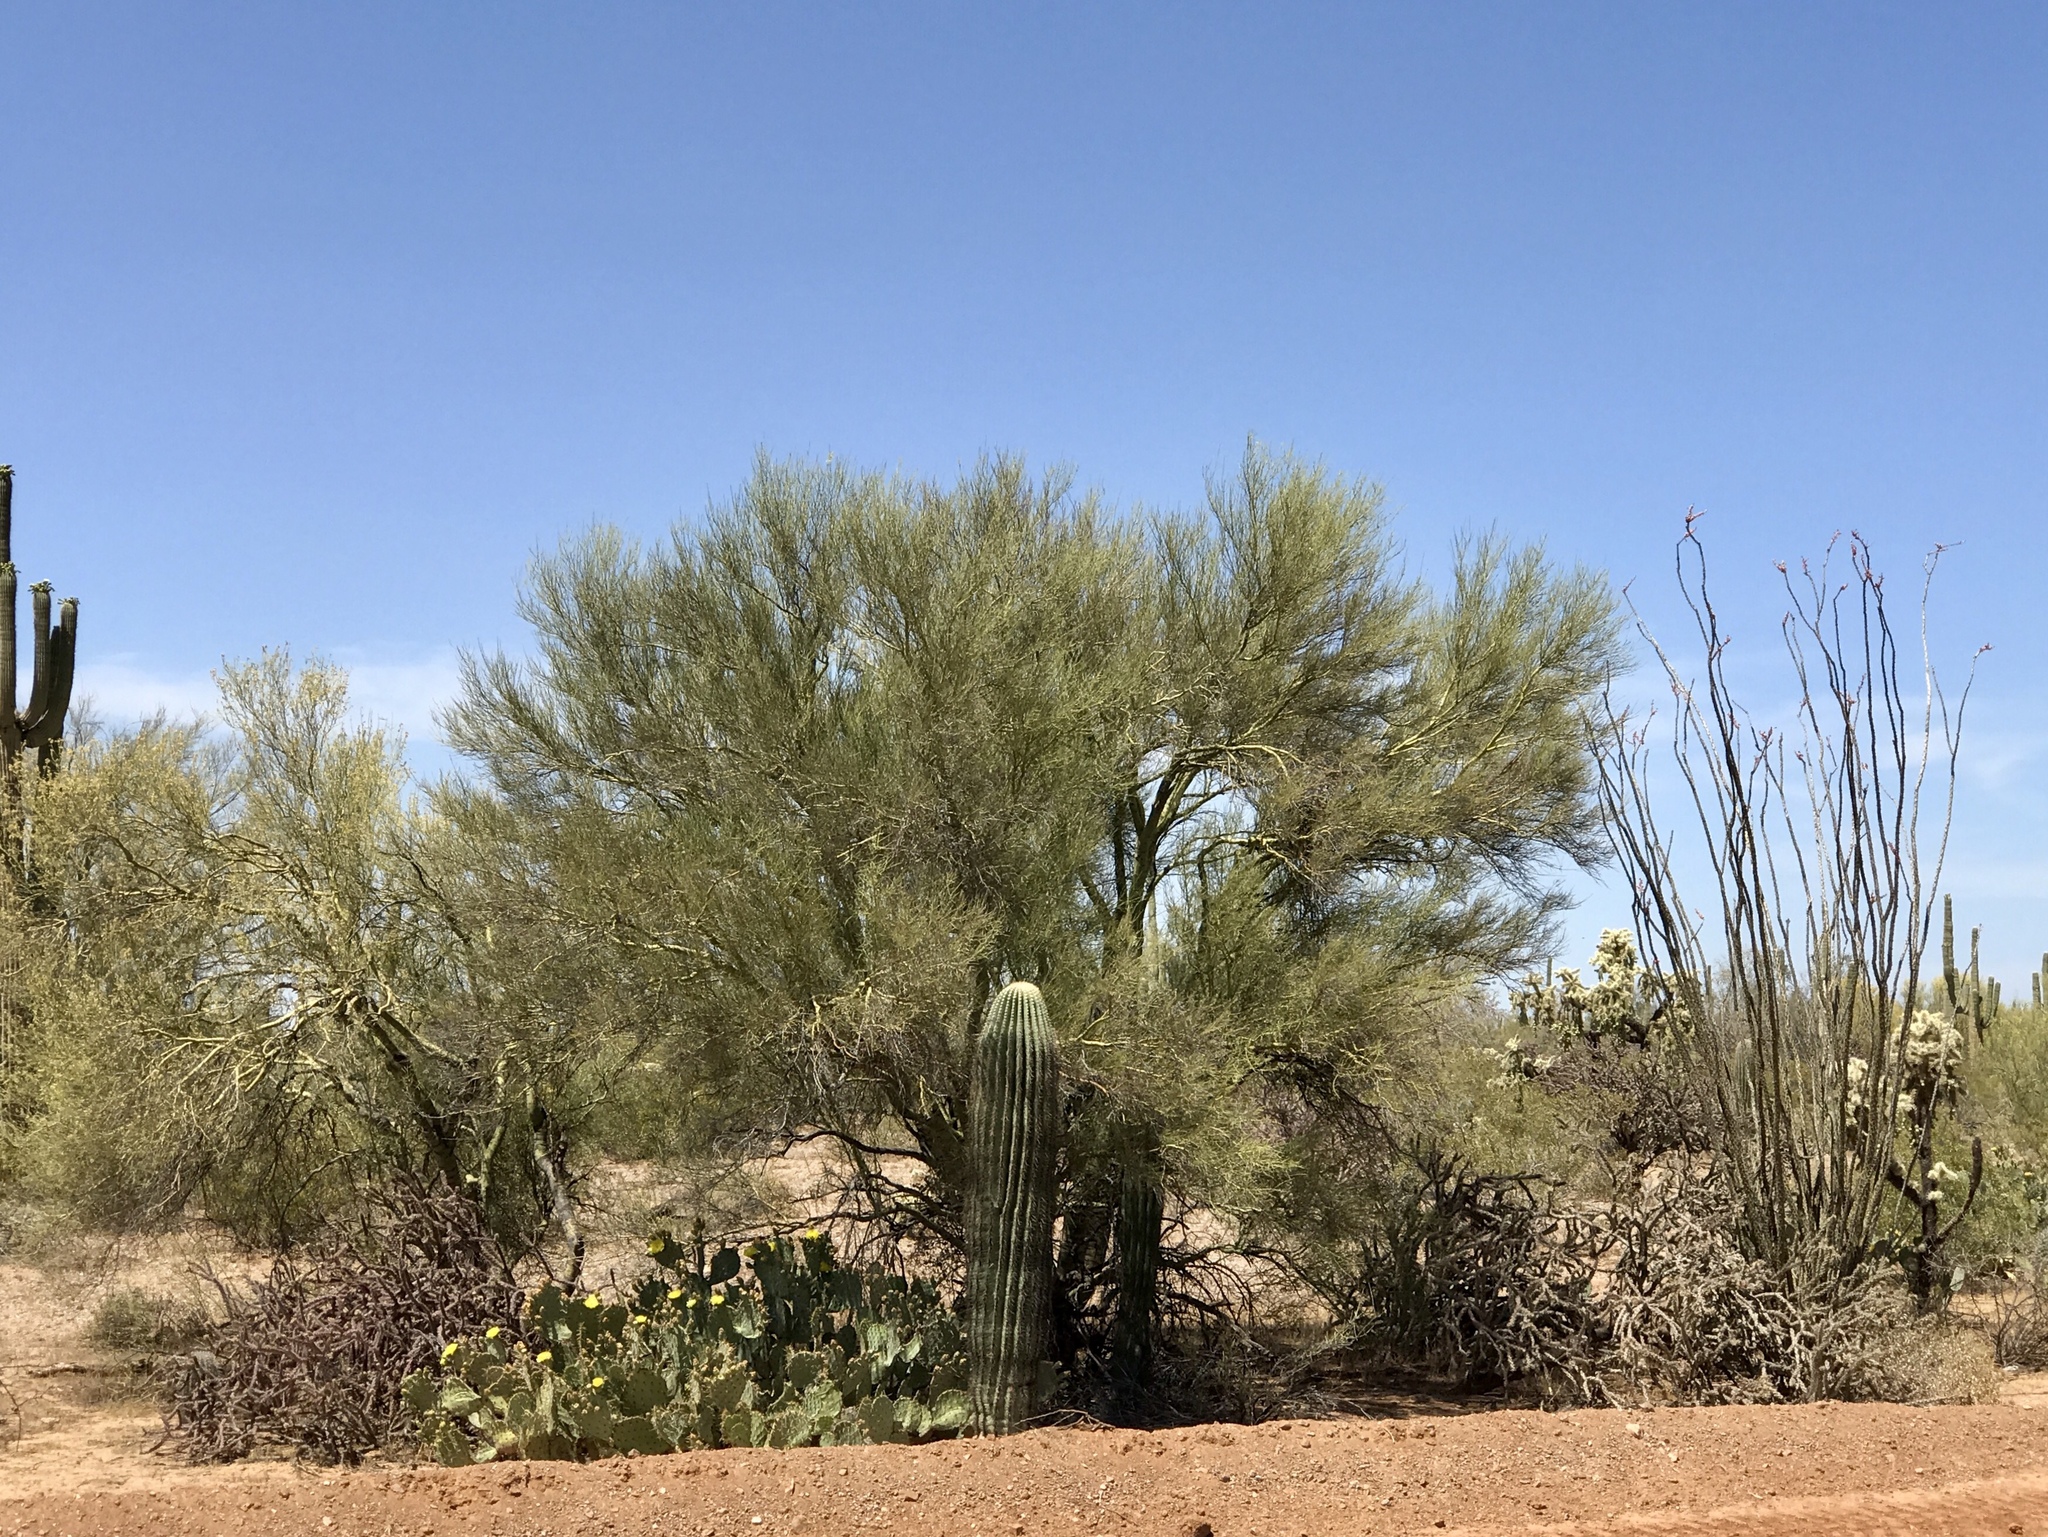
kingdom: Plantae
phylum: Tracheophyta
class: Magnoliopsida
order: Fabales
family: Fabaceae
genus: Parkinsonia
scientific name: Parkinsonia florida
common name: Blue paloverde
